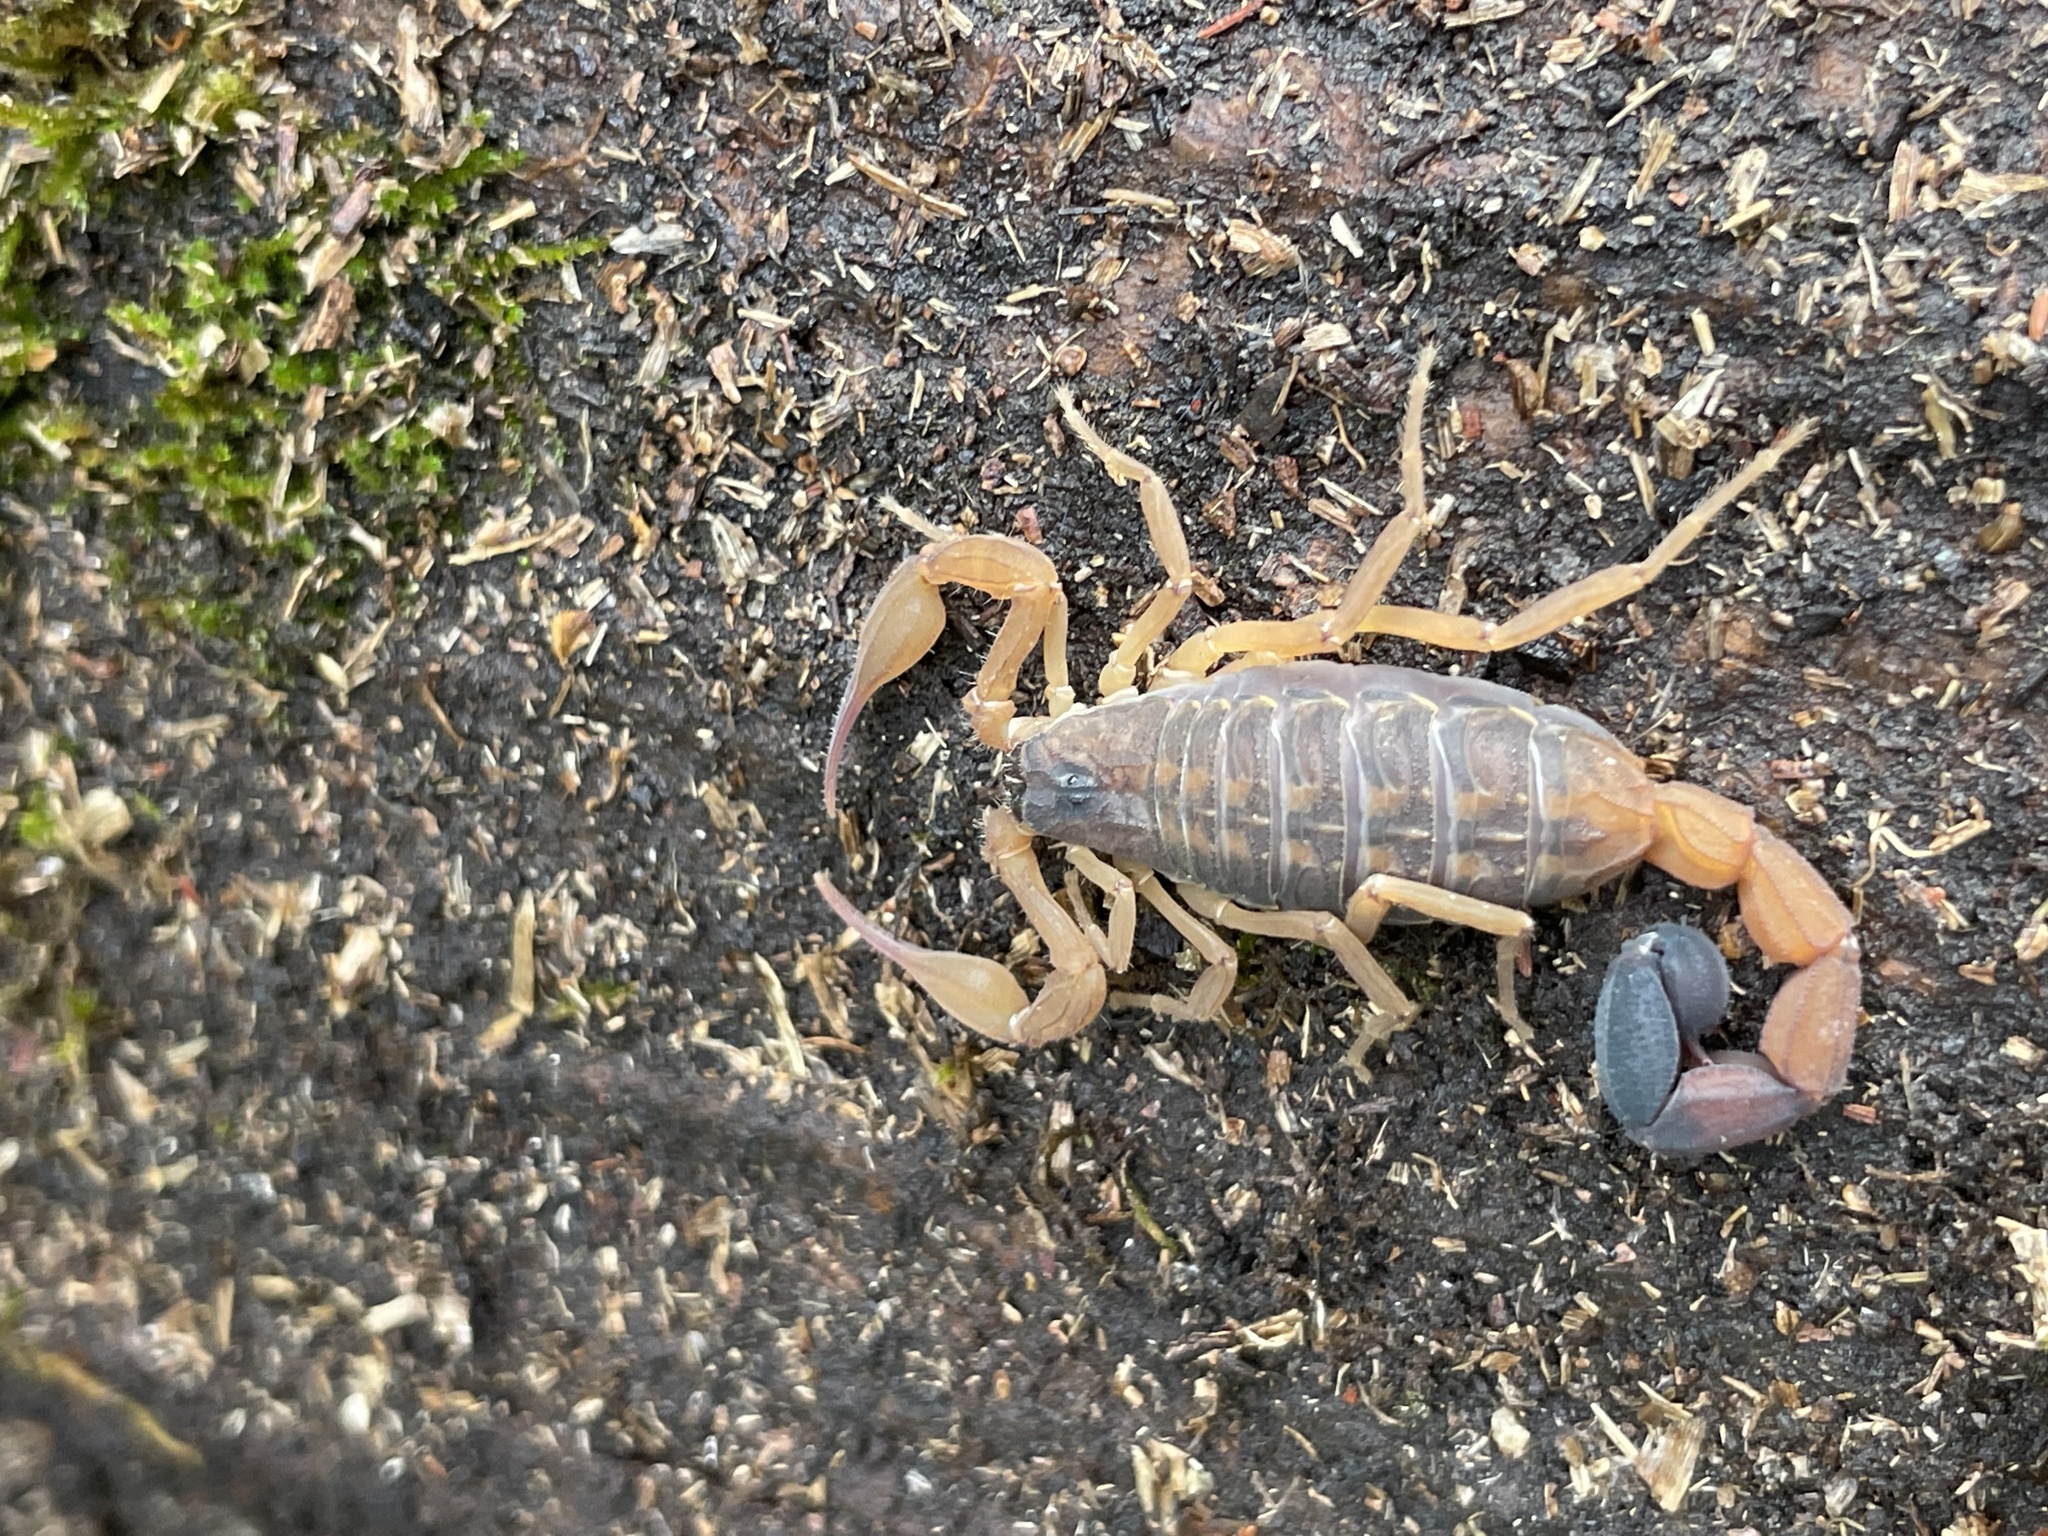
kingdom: Animalia
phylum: Arthropoda
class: Arachnida
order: Scorpiones
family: Buthidae
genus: Tityus
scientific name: Tityus pugilator
